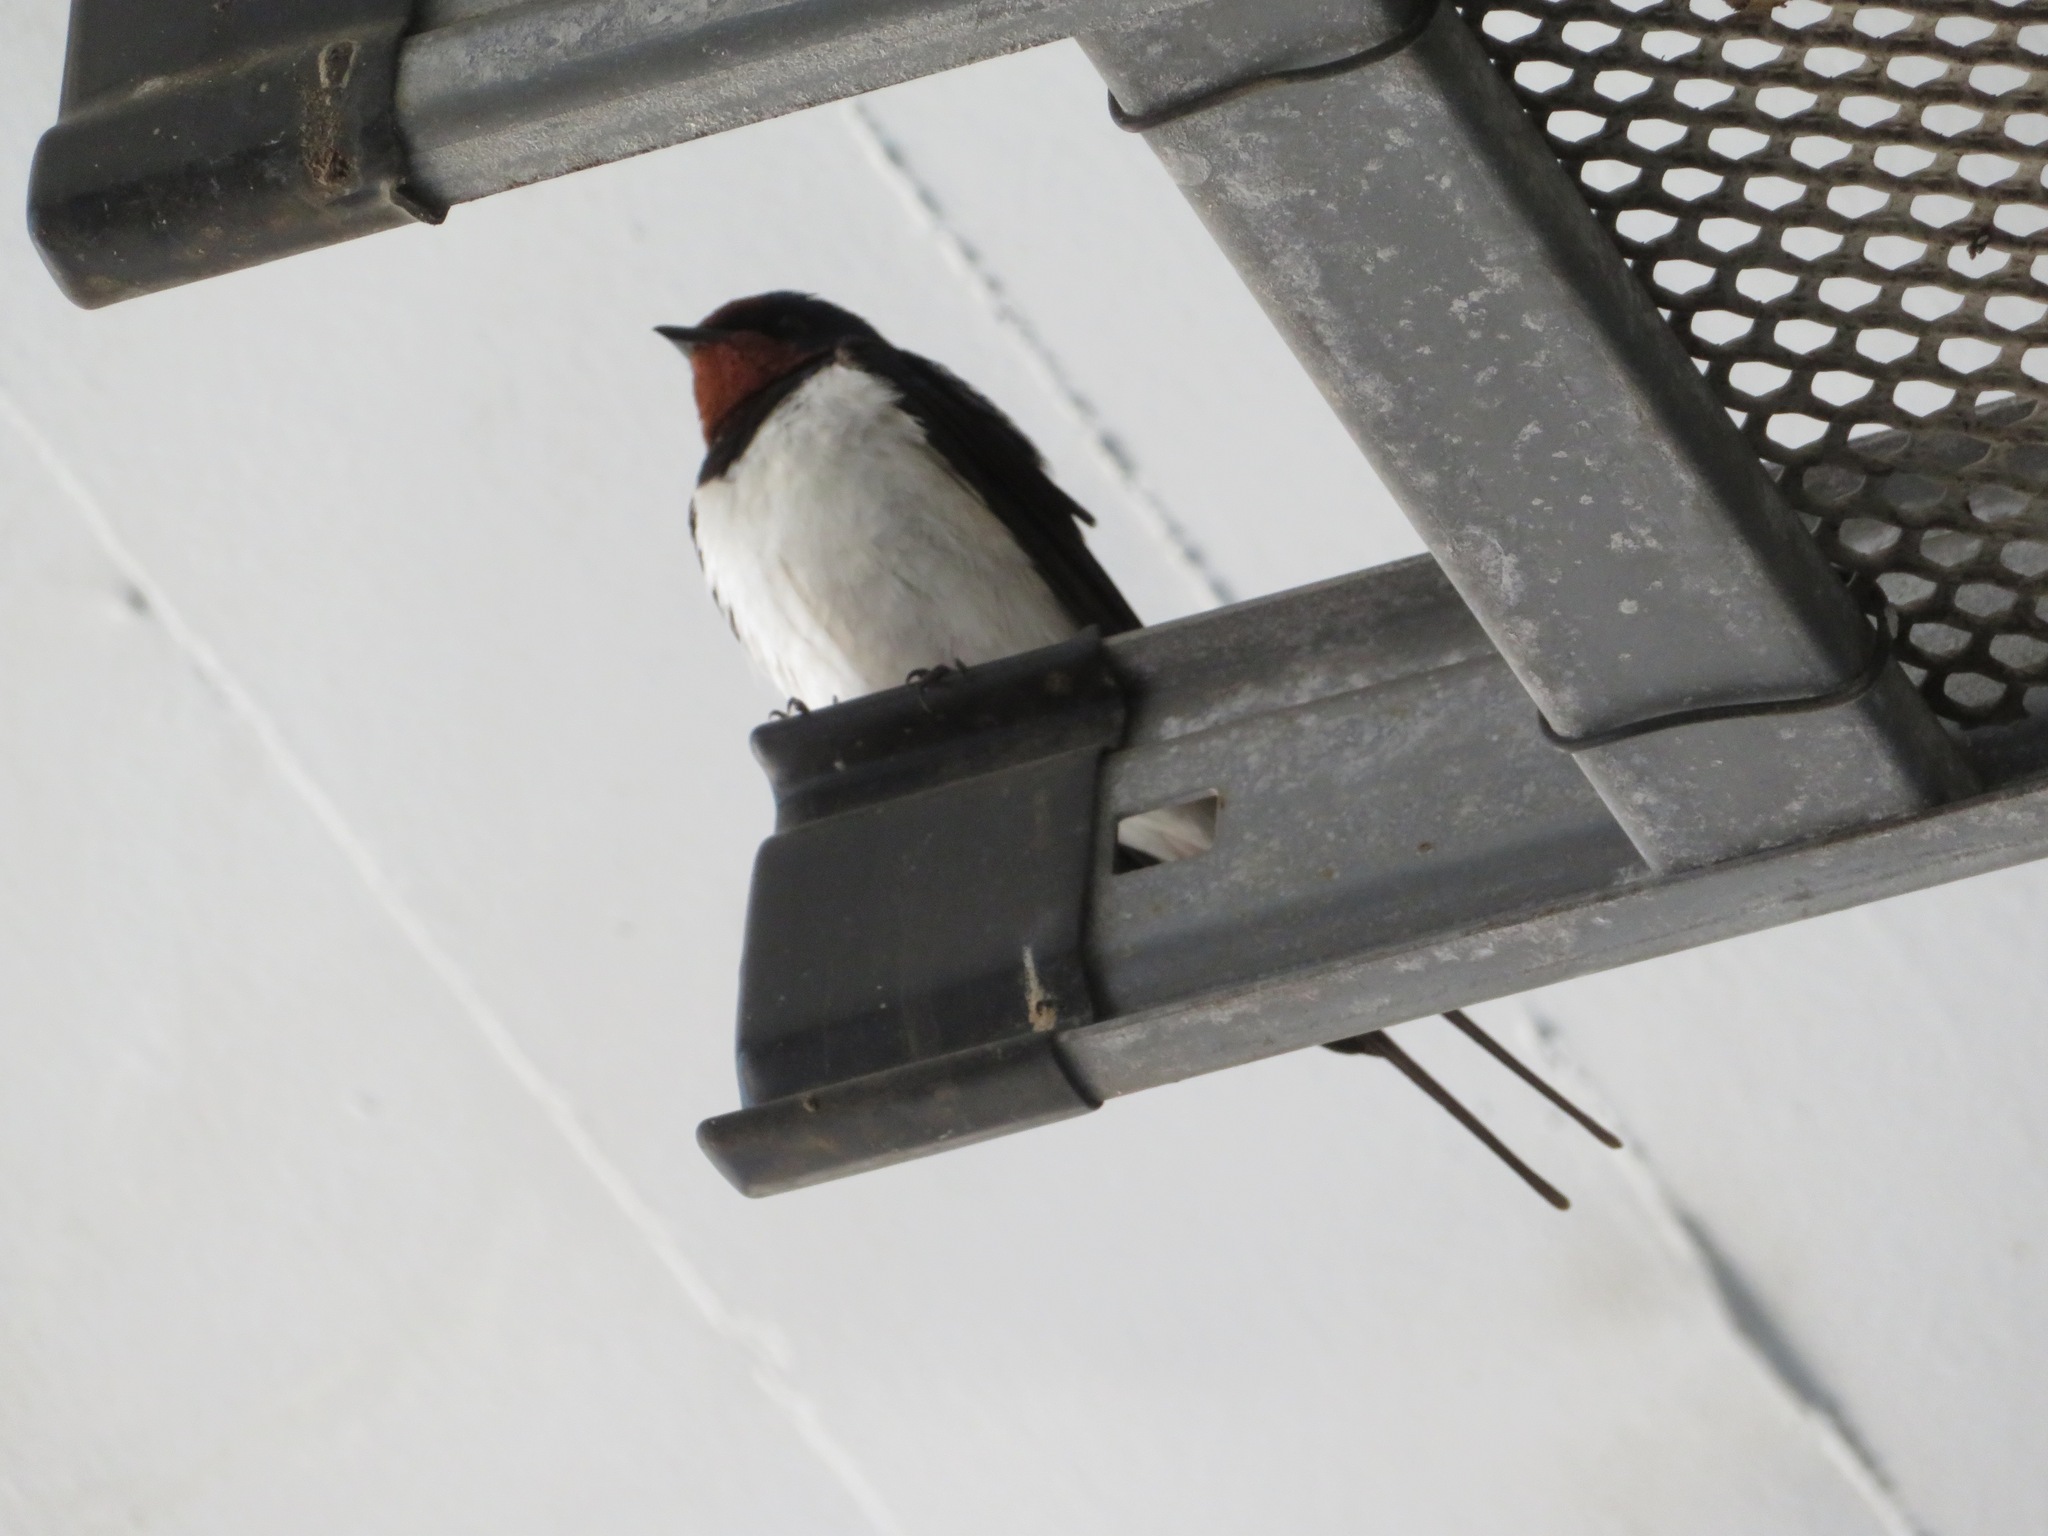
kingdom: Animalia
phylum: Chordata
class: Aves
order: Passeriformes
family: Hirundinidae
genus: Hirundo
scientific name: Hirundo rustica
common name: Barn swallow
